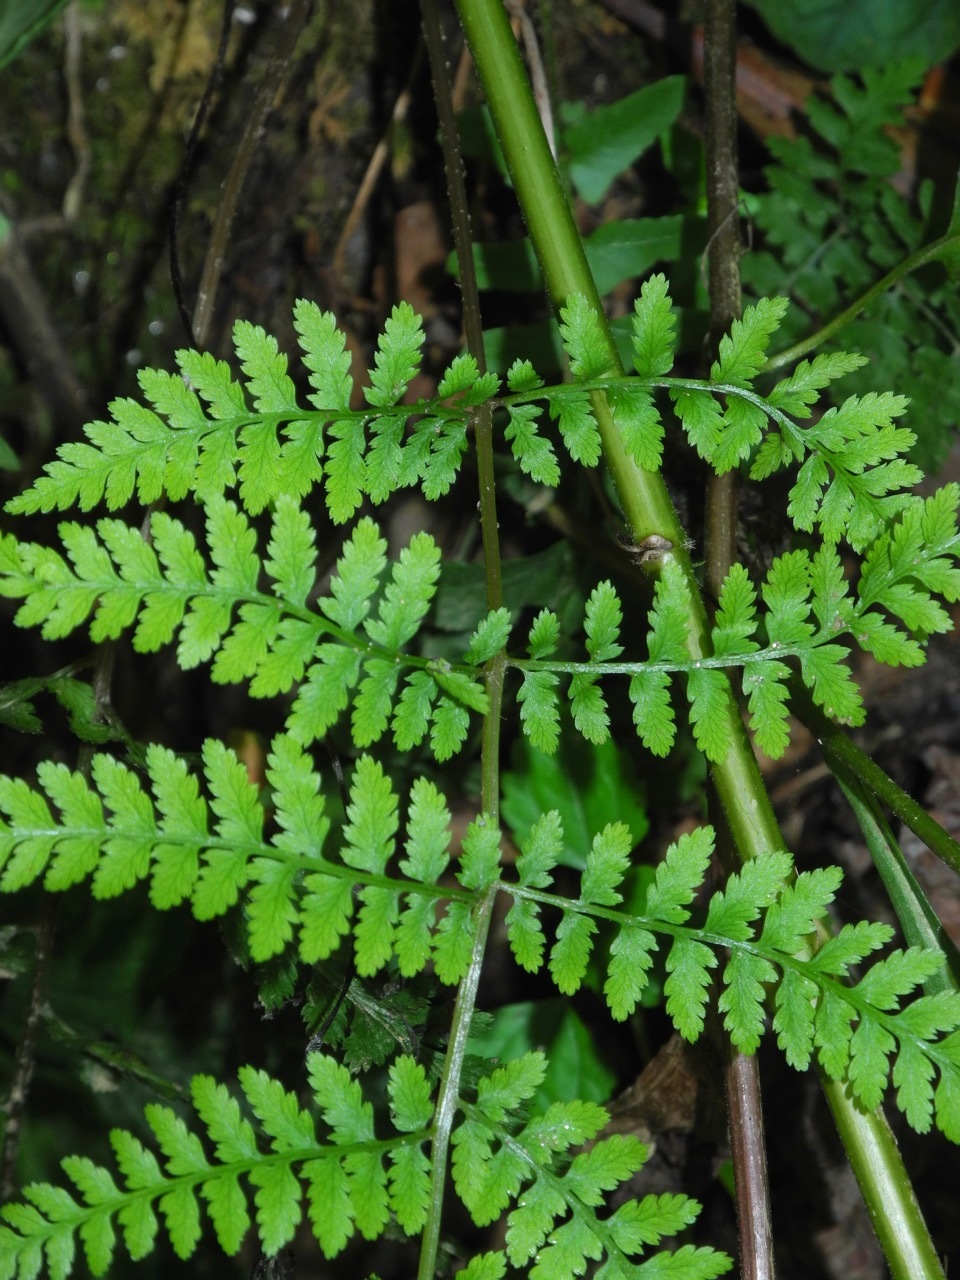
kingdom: Plantae
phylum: Tracheophyta
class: Polypodiopsida
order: Polypodiales
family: Athyriaceae
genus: Athyrium
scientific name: Athyrium asplenioides
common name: Southern lady fern
